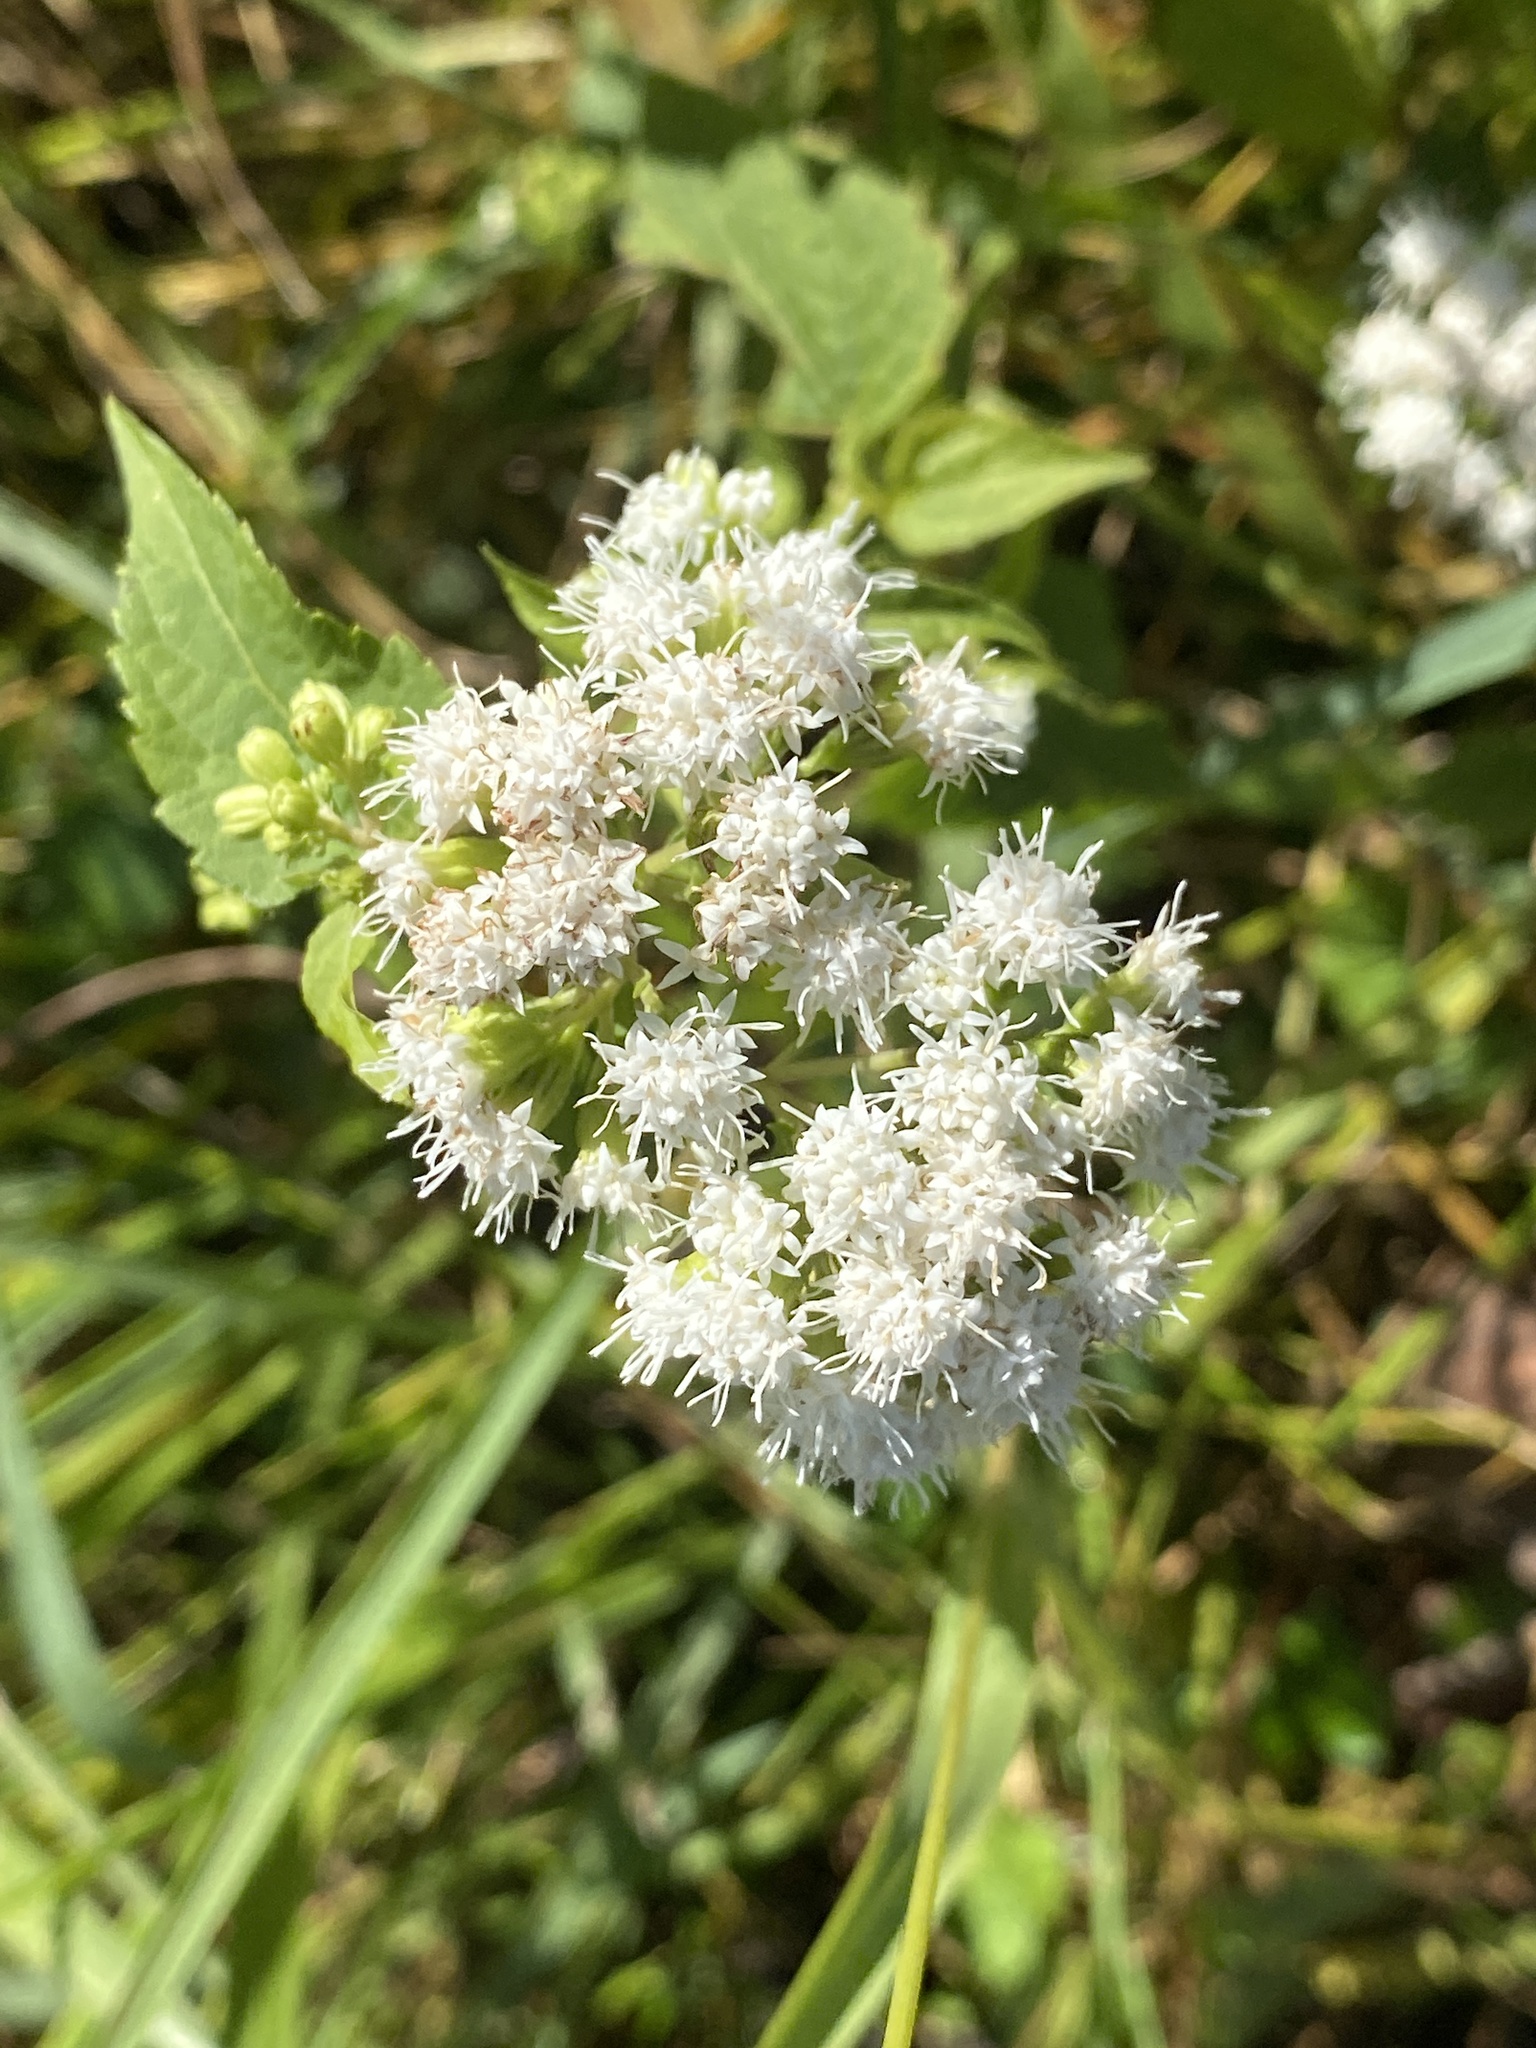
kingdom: Plantae
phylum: Tracheophyta
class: Magnoliopsida
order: Asterales
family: Asteraceae
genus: Ageratina
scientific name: Ageratina altissima
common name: White snakeroot
